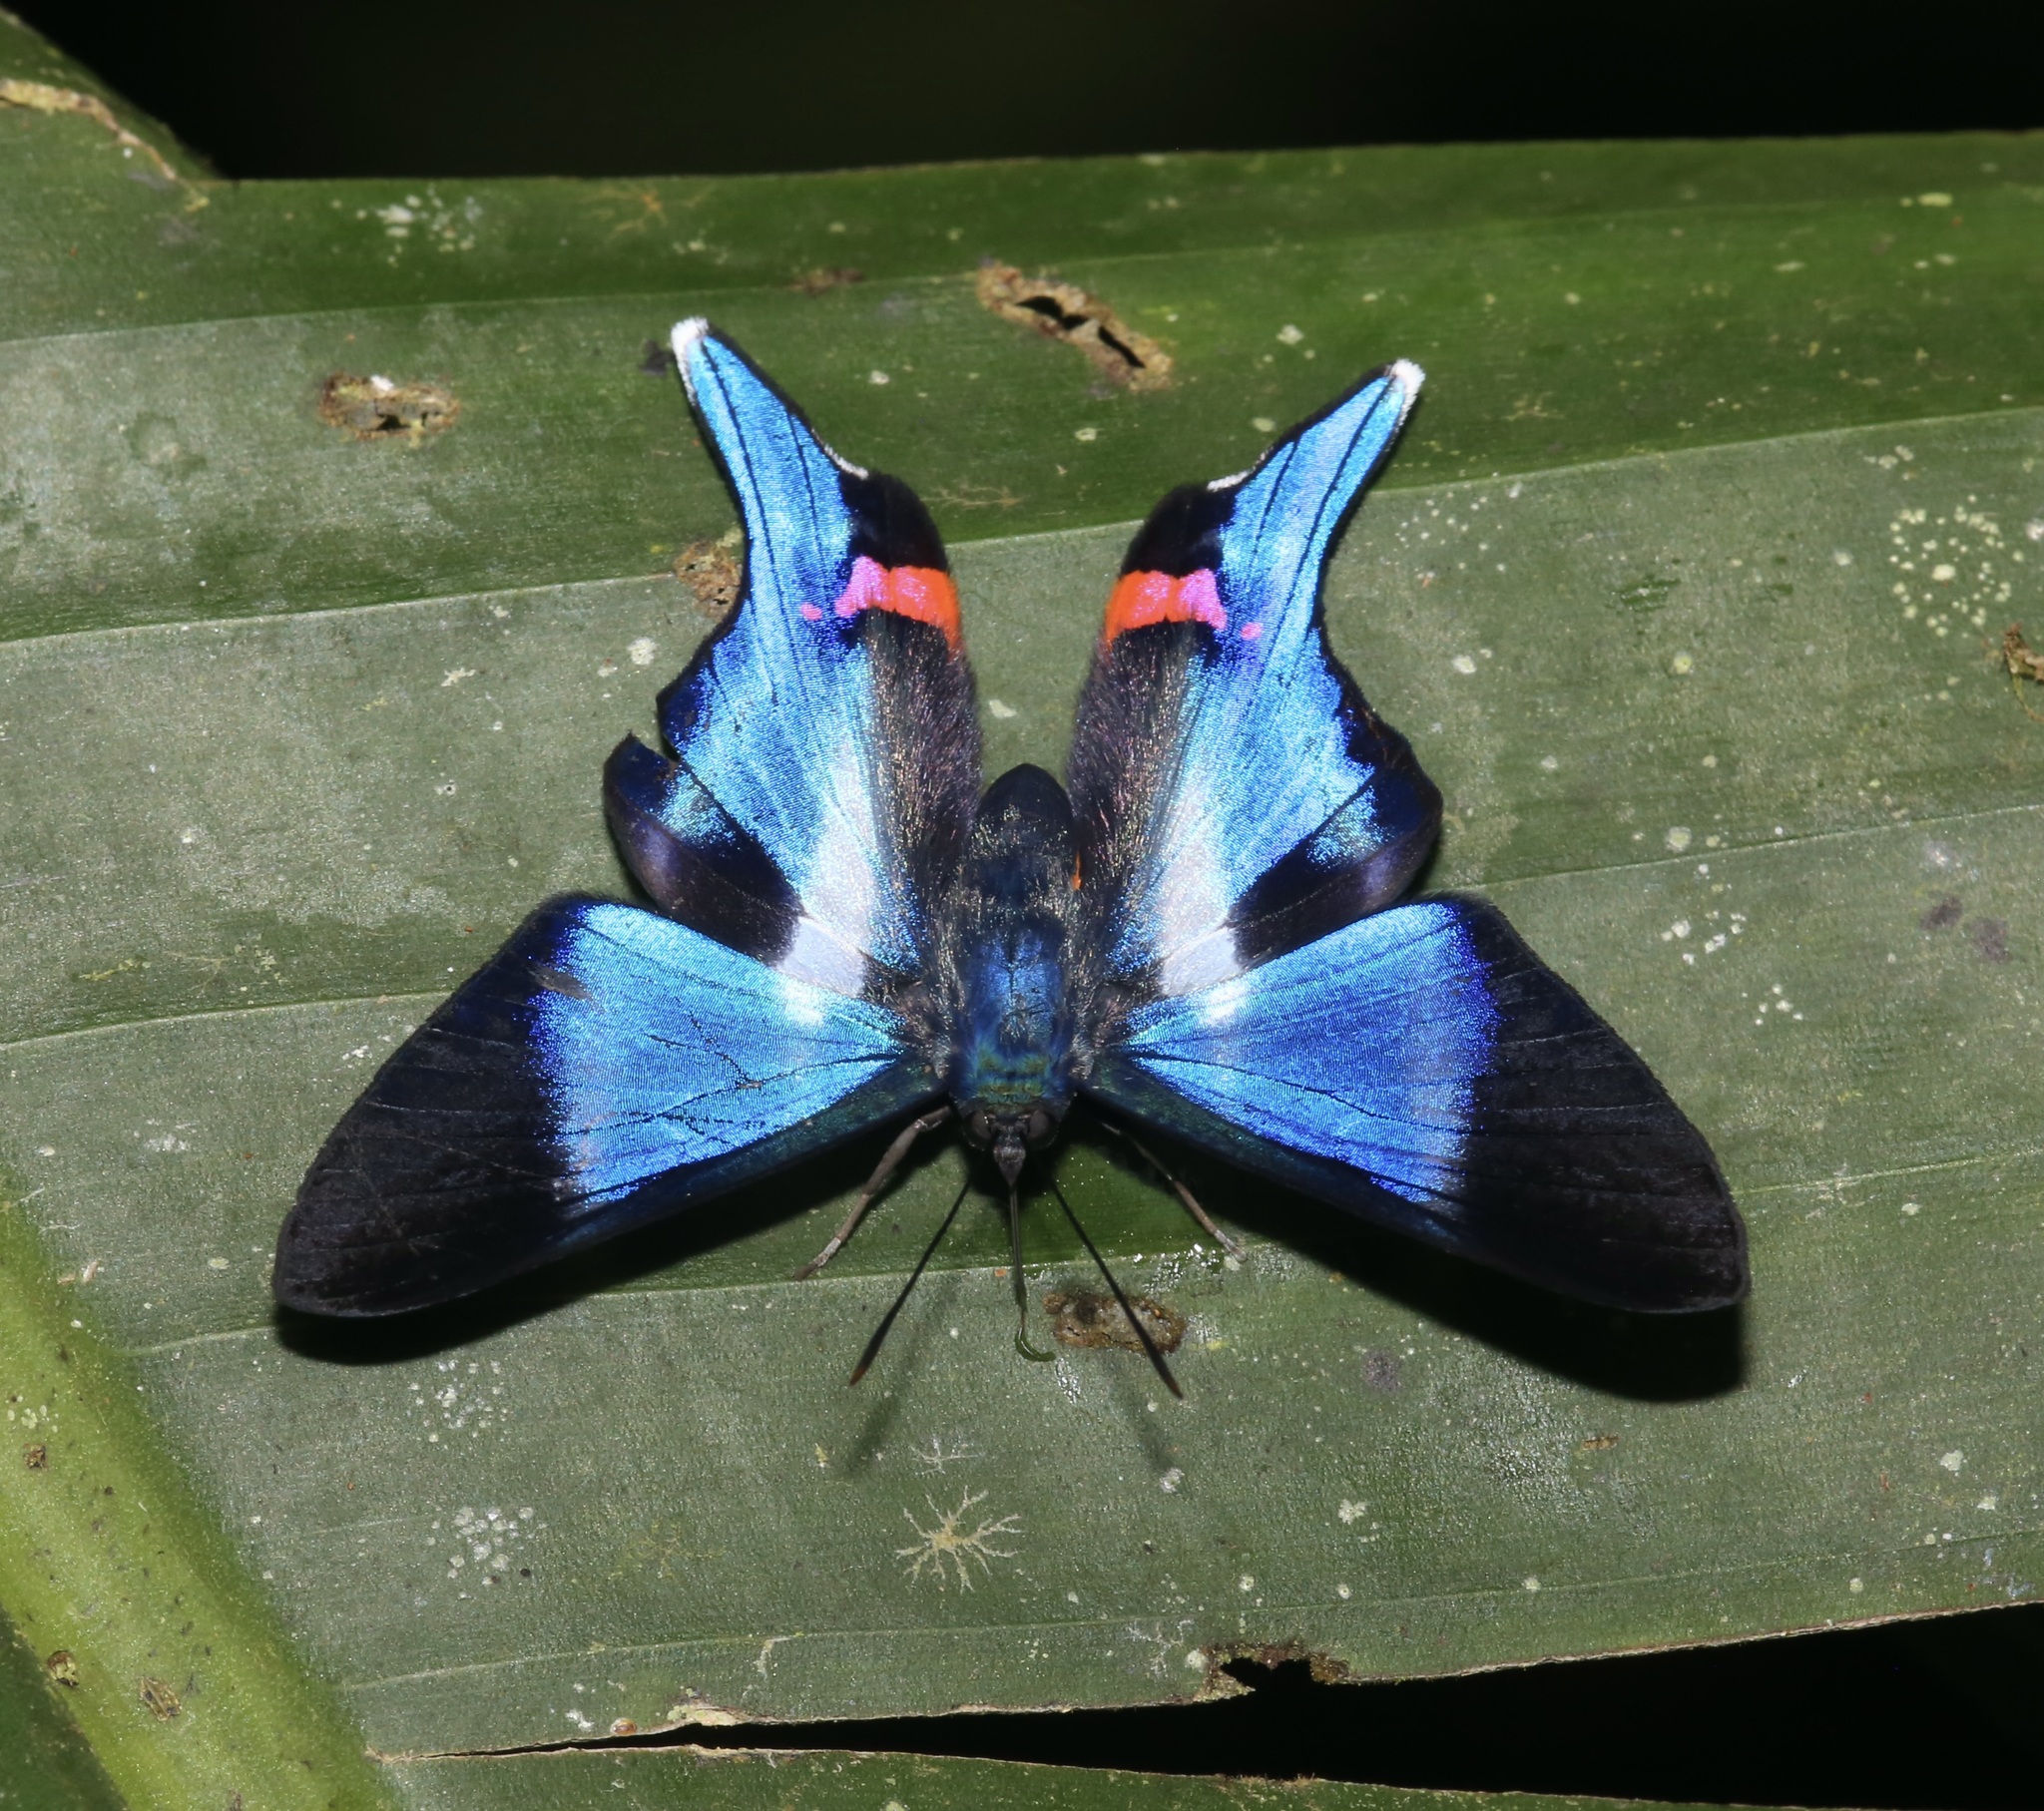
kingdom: Animalia
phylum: Arthropoda
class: Insecta
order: Lepidoptera
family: Riodinidae
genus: Rhetus
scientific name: Rhetus dysonii
